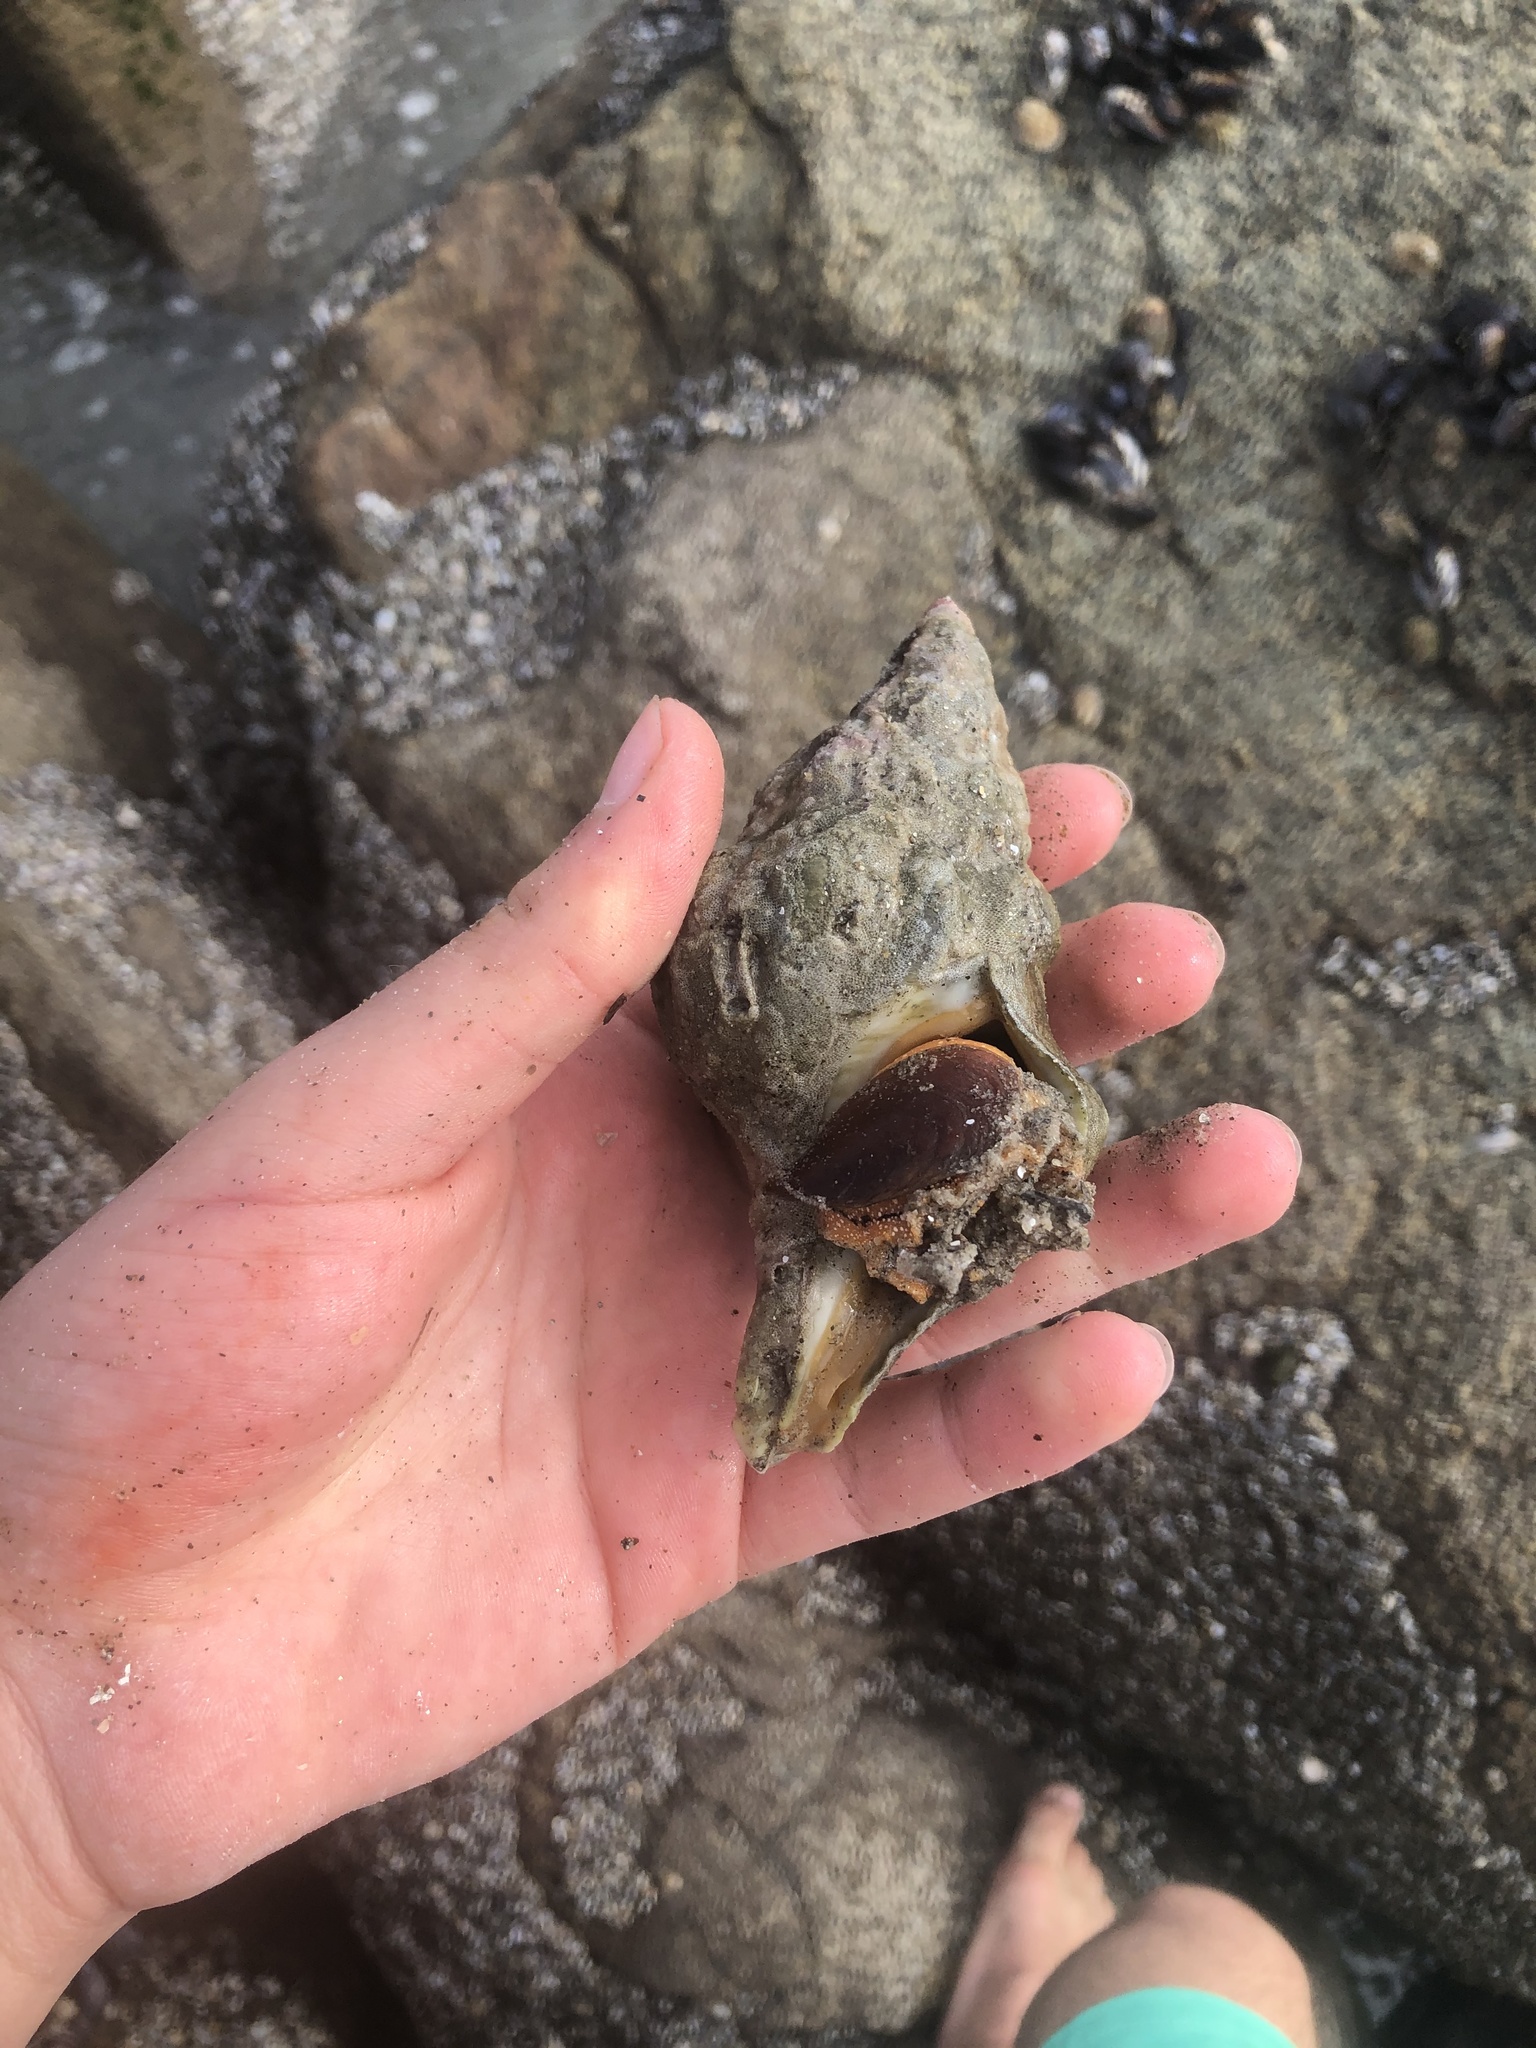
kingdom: Animalia
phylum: Mollusca
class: Gastropoda
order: Neogastropoda
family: Austrosiphonidae
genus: Kelletia
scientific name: Kelletia kelletii
